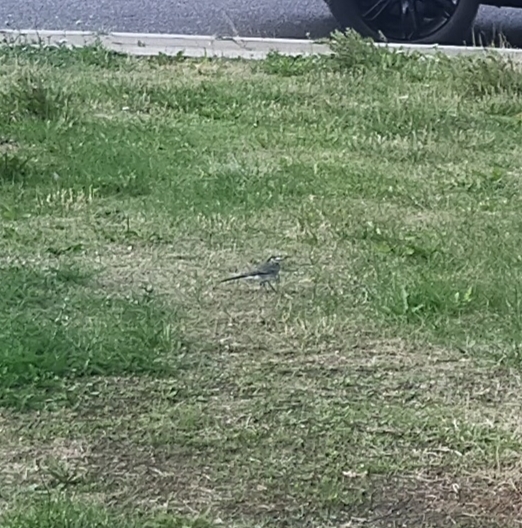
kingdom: Animalia
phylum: Chordata
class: Aves
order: Passeriformes
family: Motacillidae
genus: Motacilla
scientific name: Motacilla alba
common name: White wagtail
